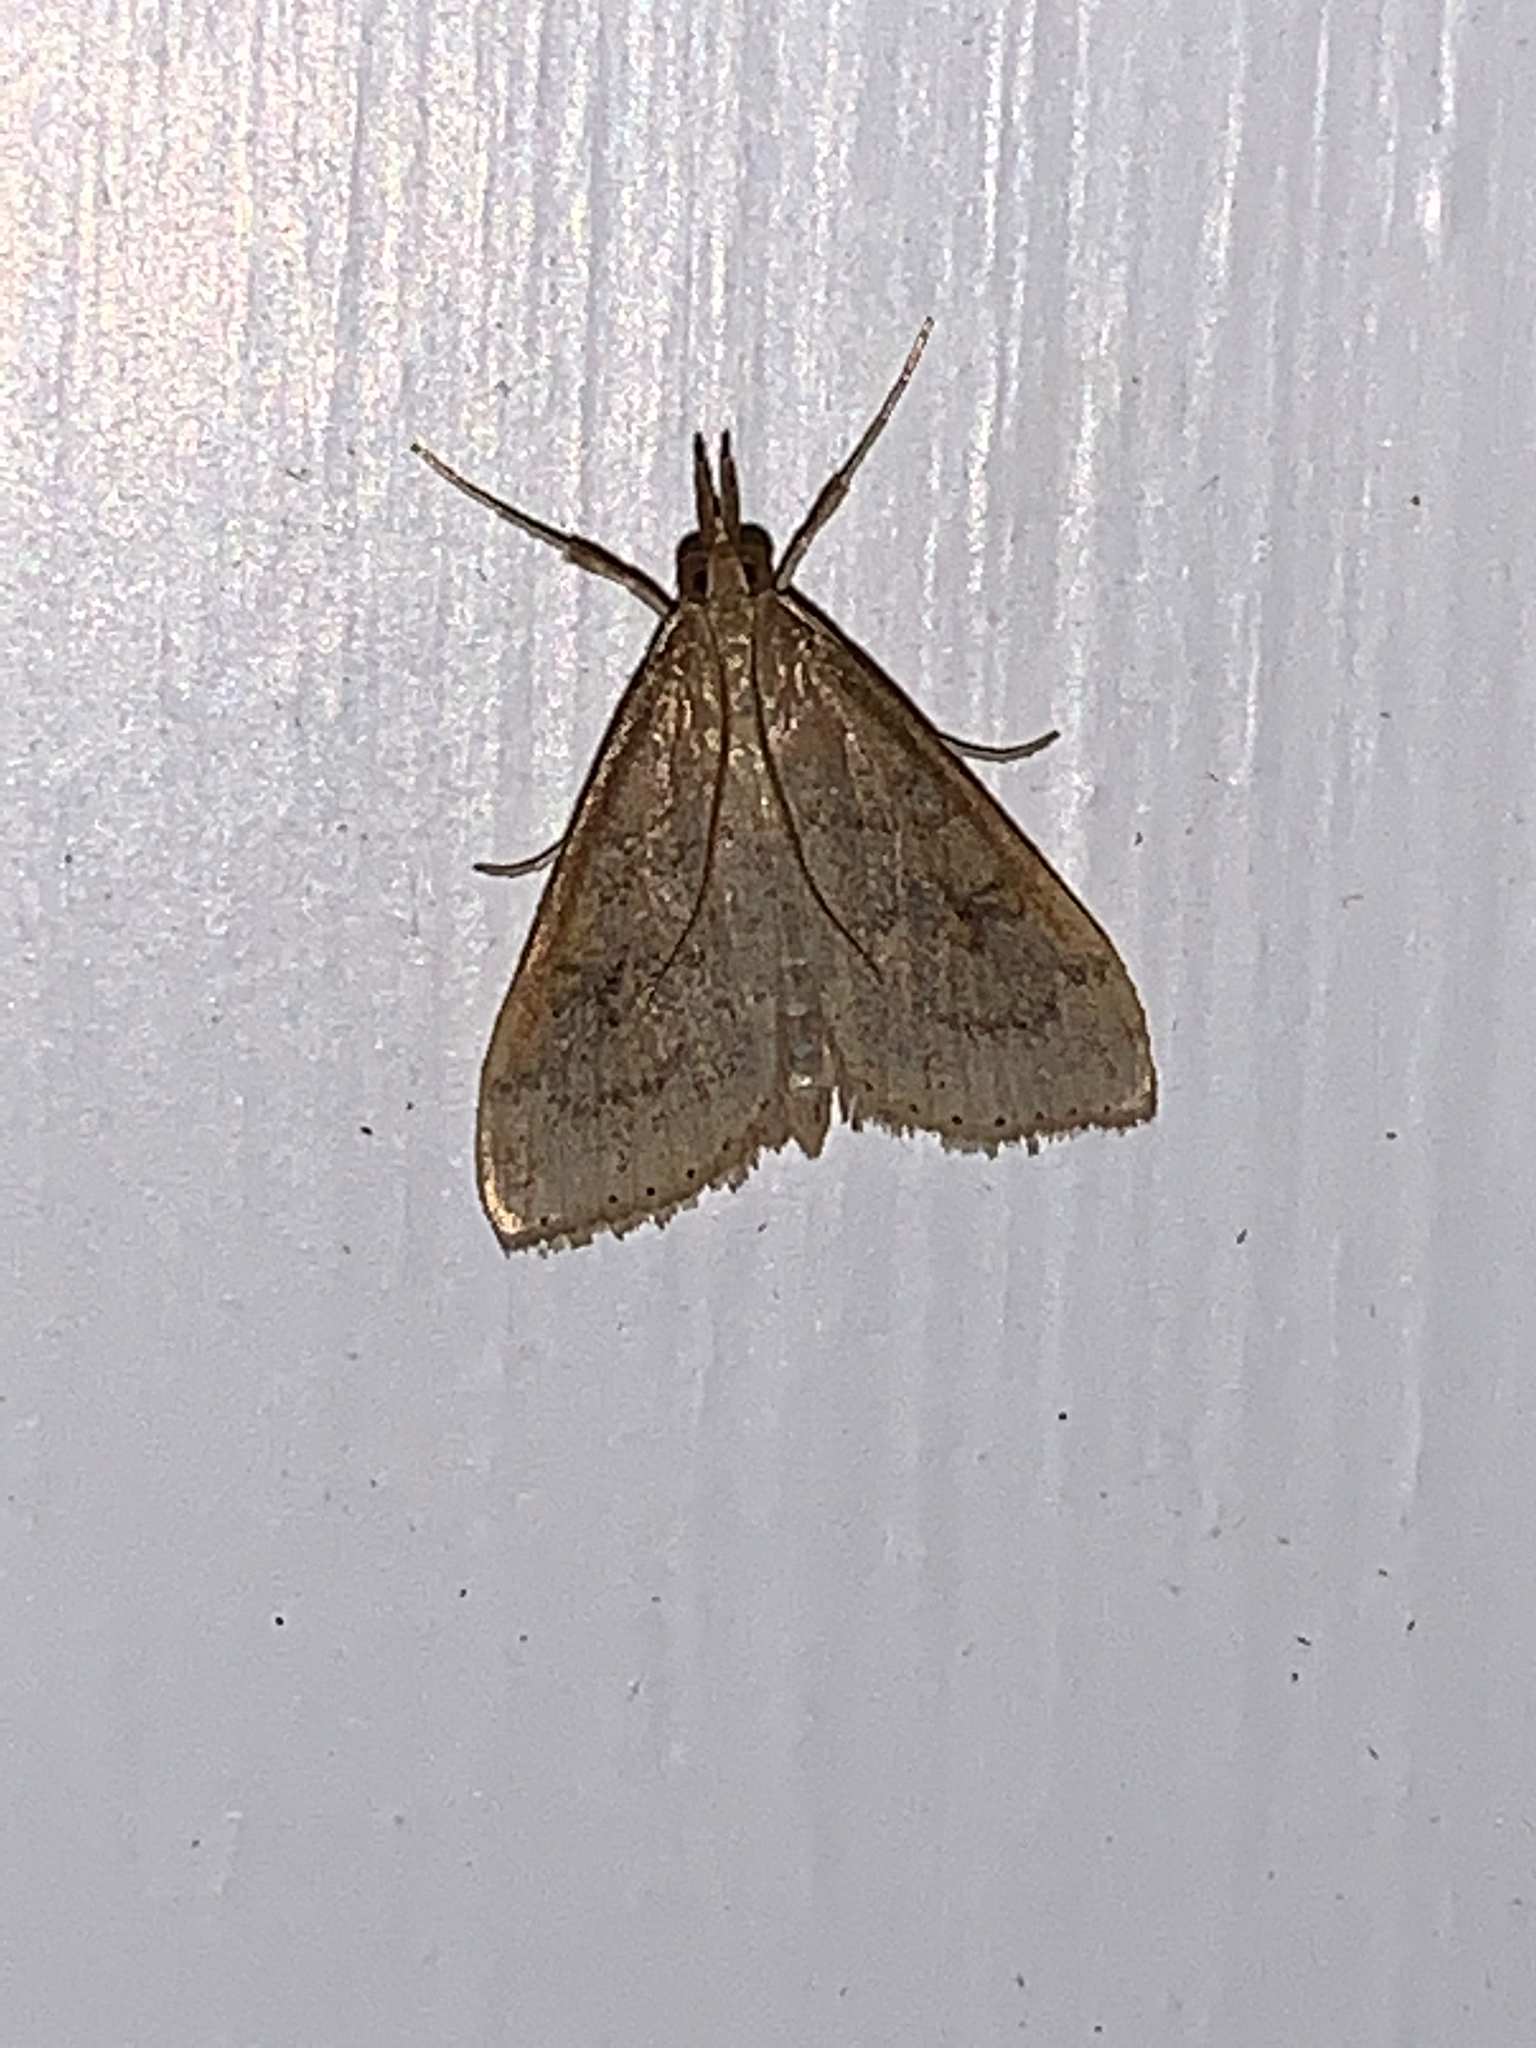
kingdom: Animalia
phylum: Arthropoda
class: Insecta
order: Lepidoptera
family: Crambidae
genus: Udea
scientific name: Udea rubigalis
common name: Celery leaftier moth
